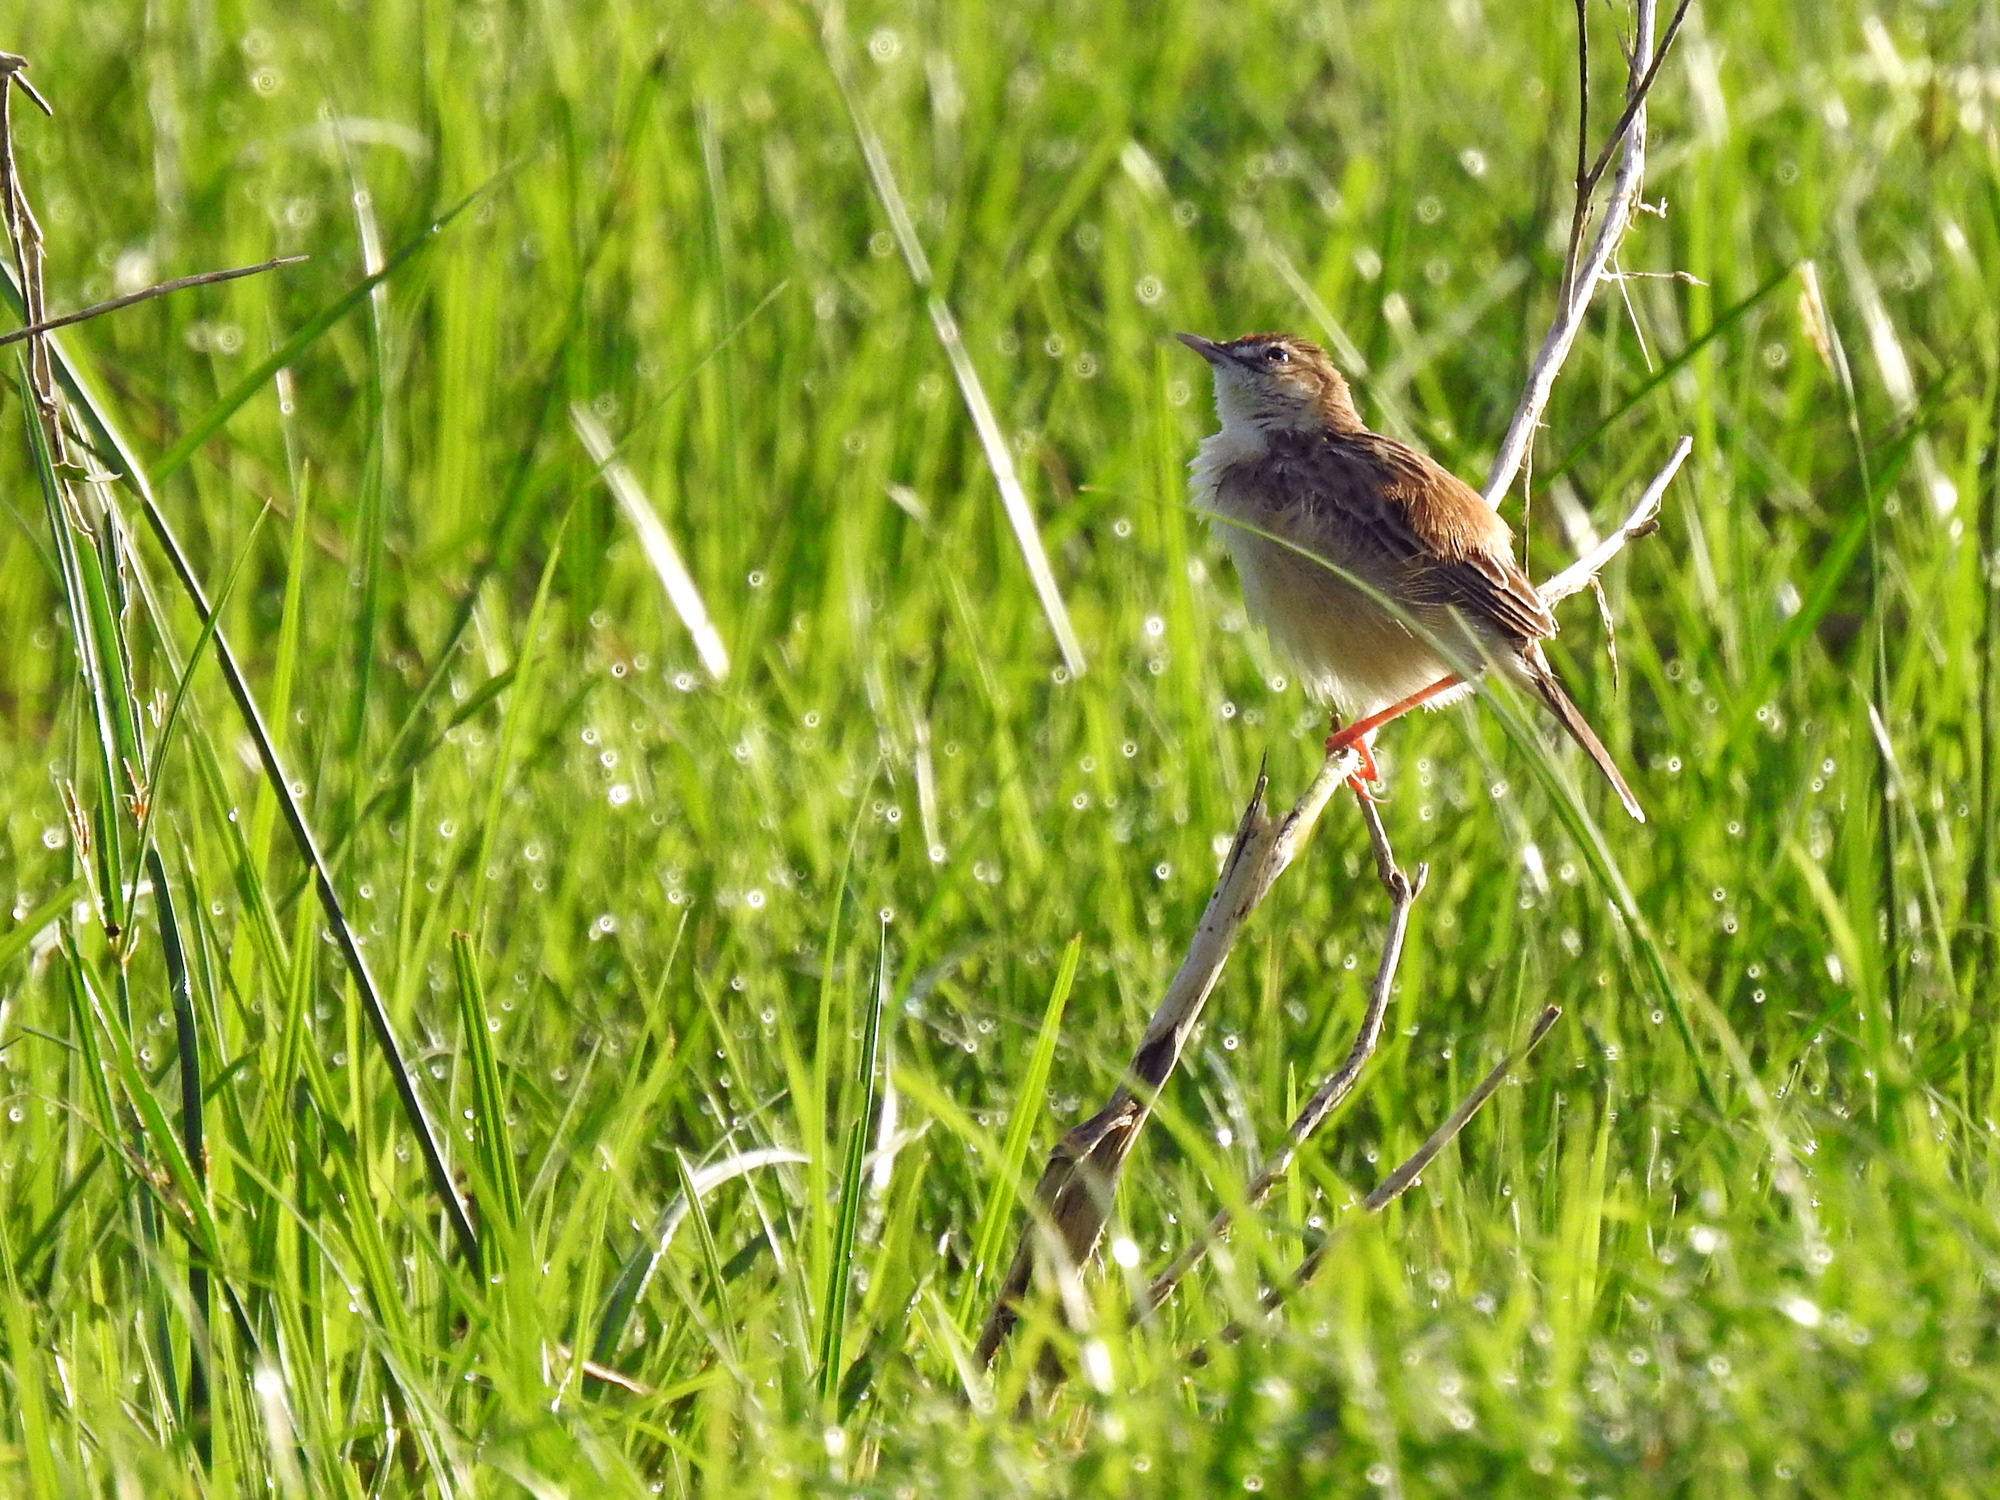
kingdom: Animalia
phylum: Chordata
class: Aves
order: Passeriformes
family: Cisticolidae
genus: Cisticola
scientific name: Cisticola juncidis
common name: Zitting cisticola
